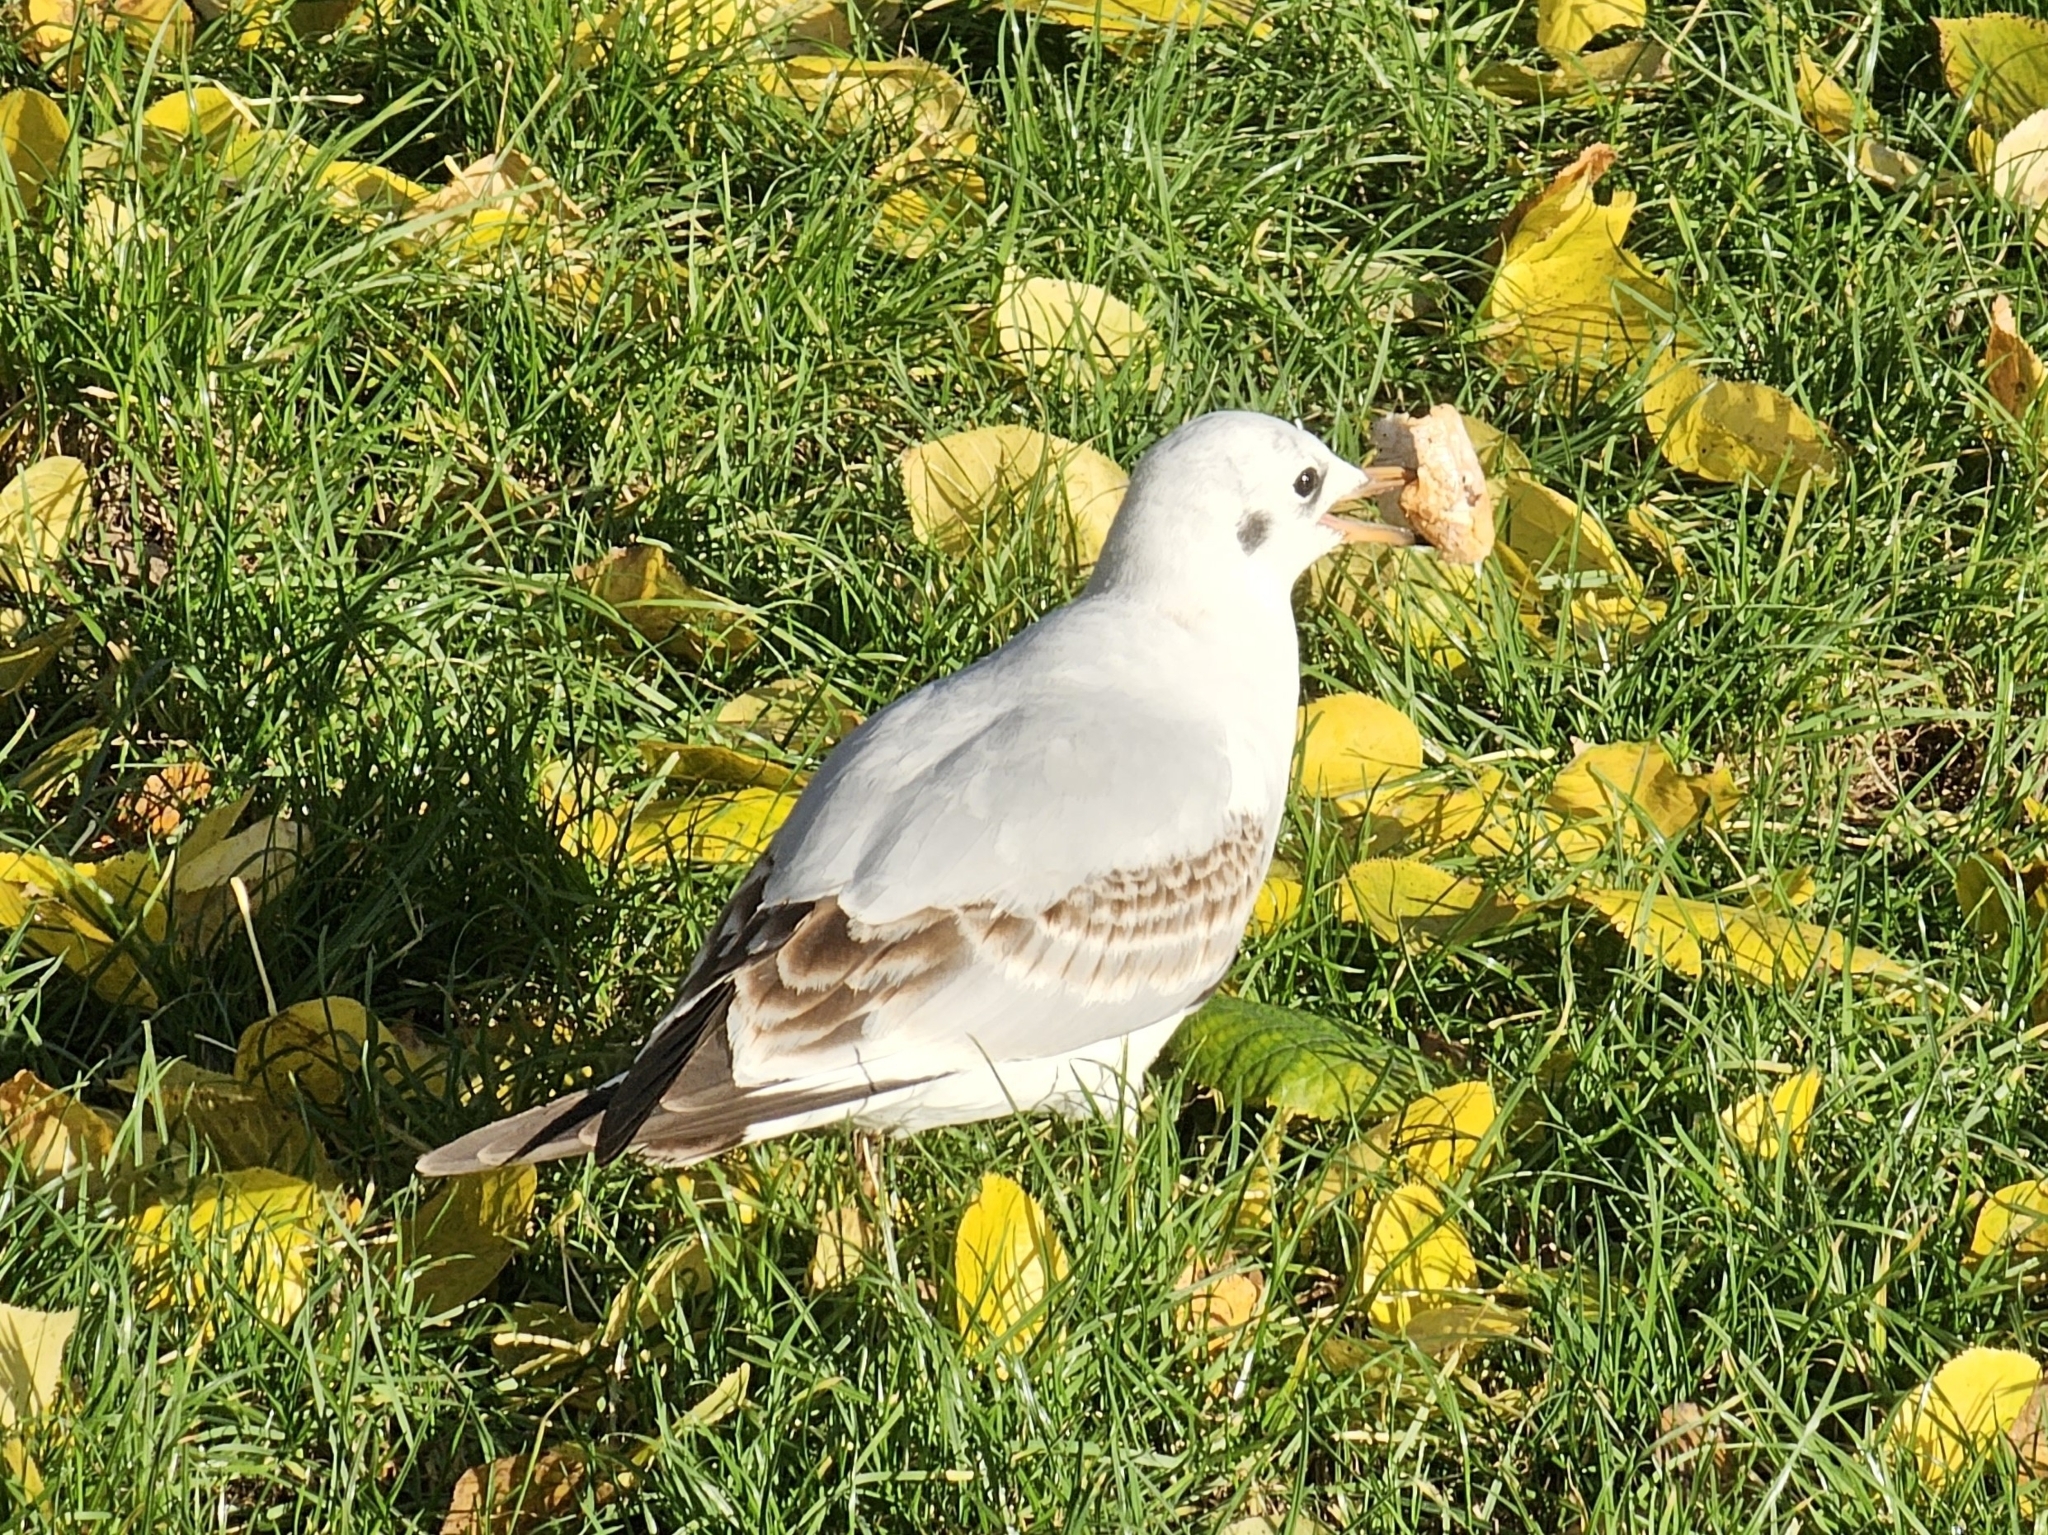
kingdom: Animalia
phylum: Chordata
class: Aves
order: Charadriiformes
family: Laridae
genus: Chroicocephalus
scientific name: Chroicocephalus ridibundus
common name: Black-headed gull
